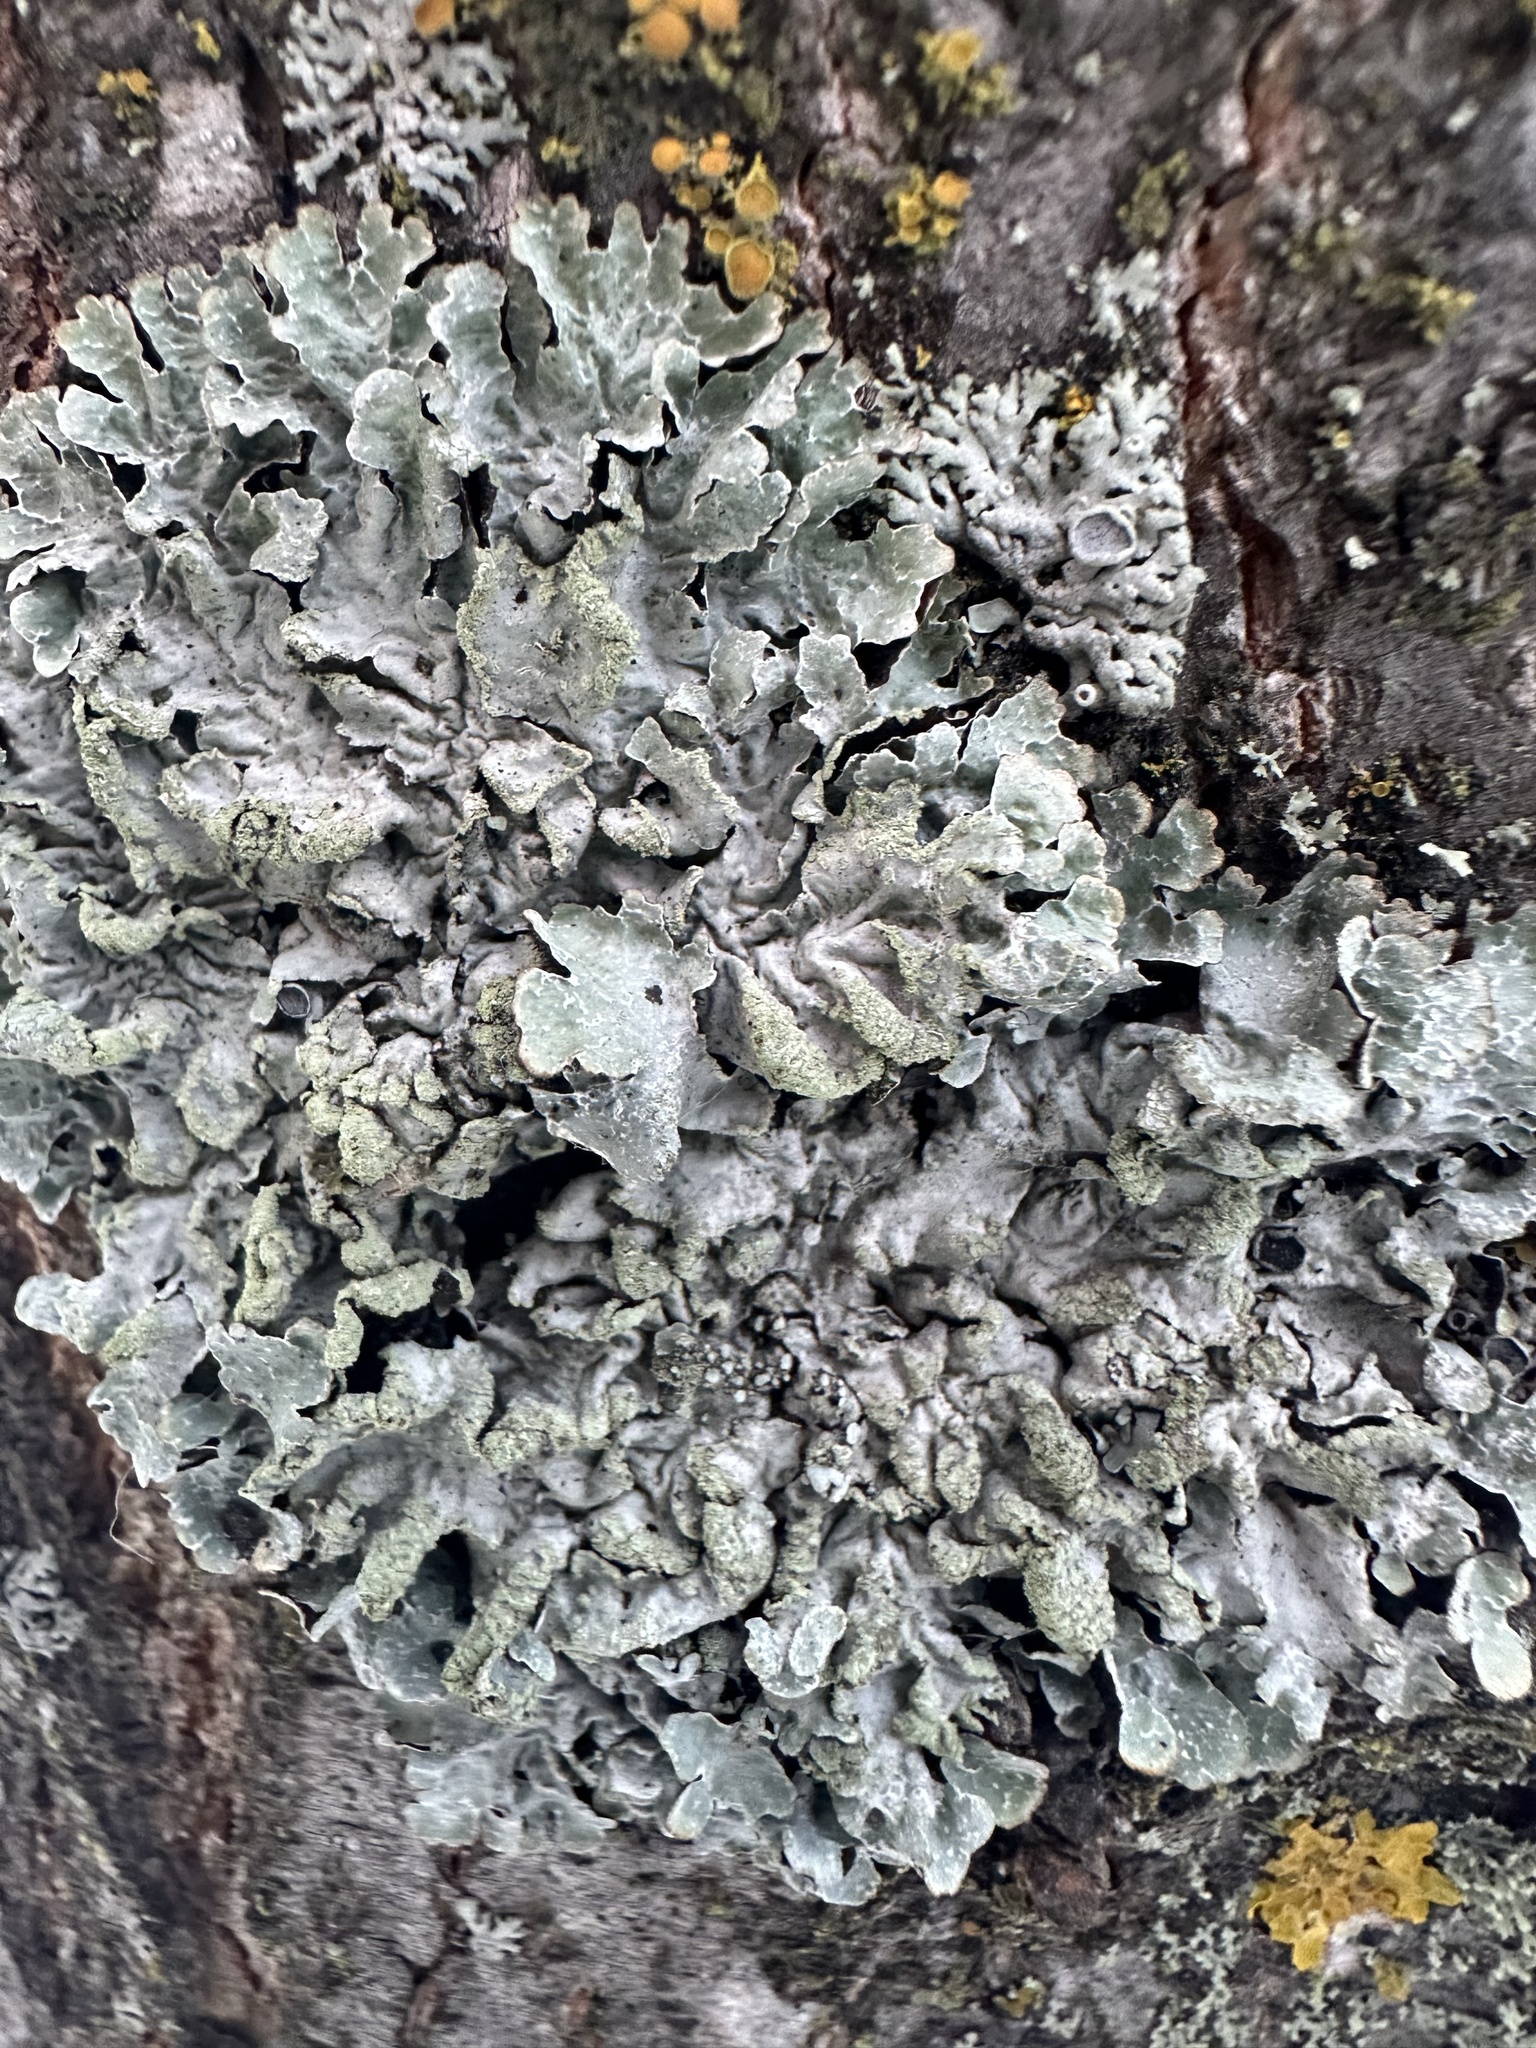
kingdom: Fungi
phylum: Ascomycota
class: Lecanoromycetes
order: Lecanorales
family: Parmeliaceae
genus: Parmelia
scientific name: Parmelia sulcata
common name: Netted shield lichen
